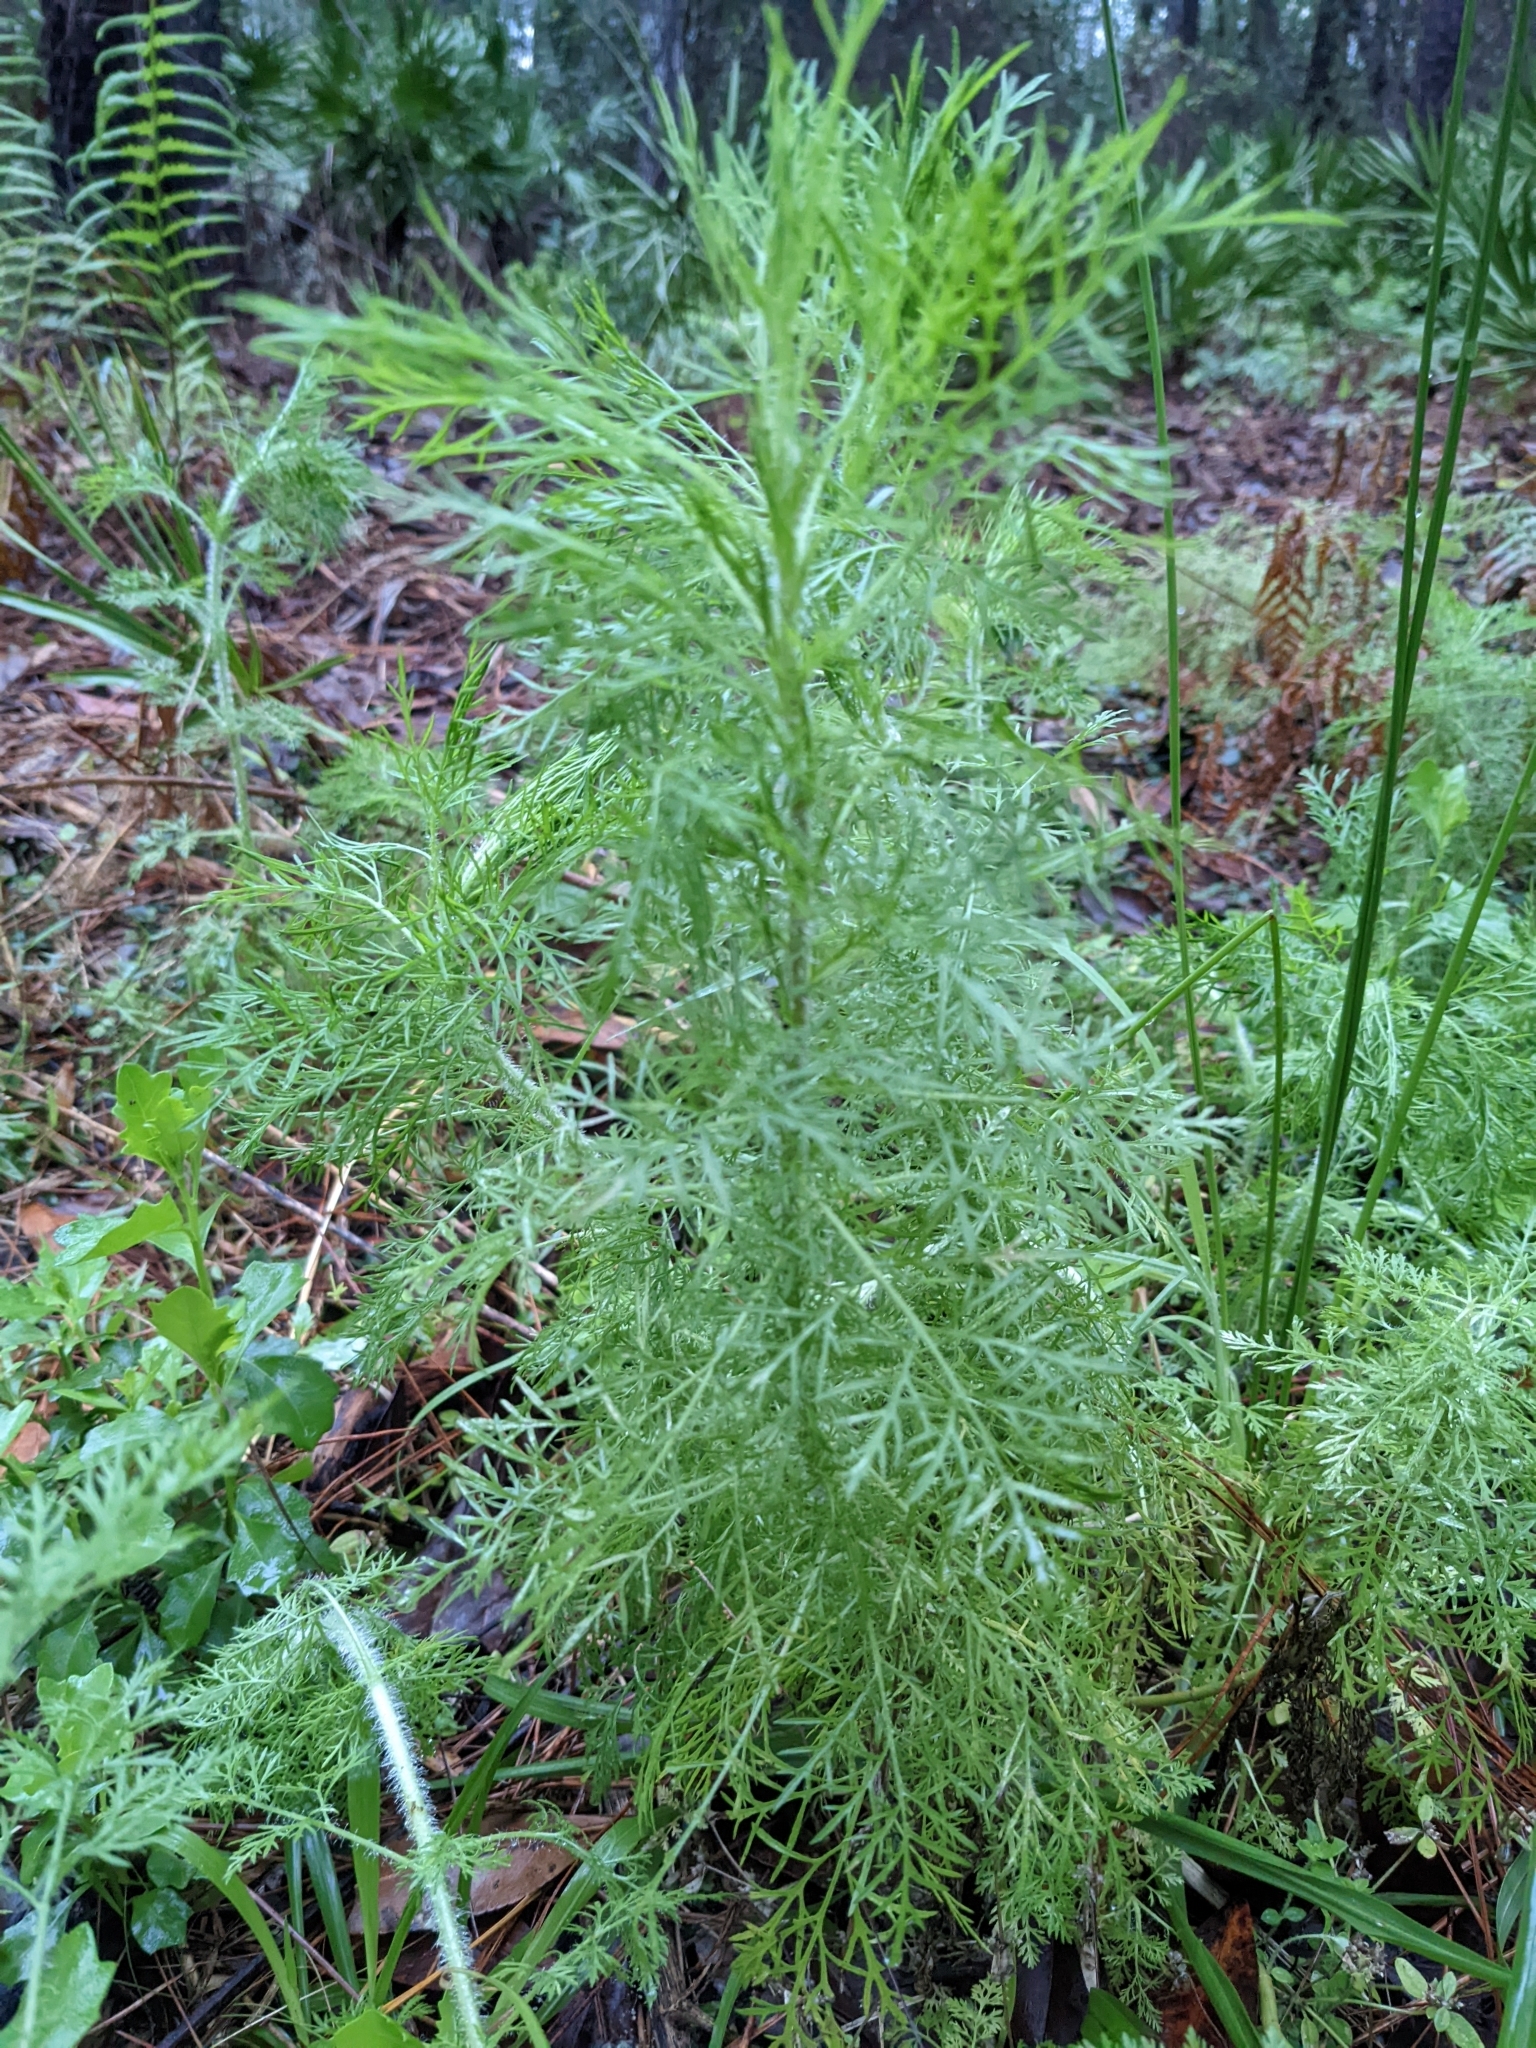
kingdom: Plantae
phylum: Tracheophyta
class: Magnoliopsida
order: Asterales
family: Asteraceae
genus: Eupatorium
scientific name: Eupatorium capillifolium
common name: Dog-fennel
